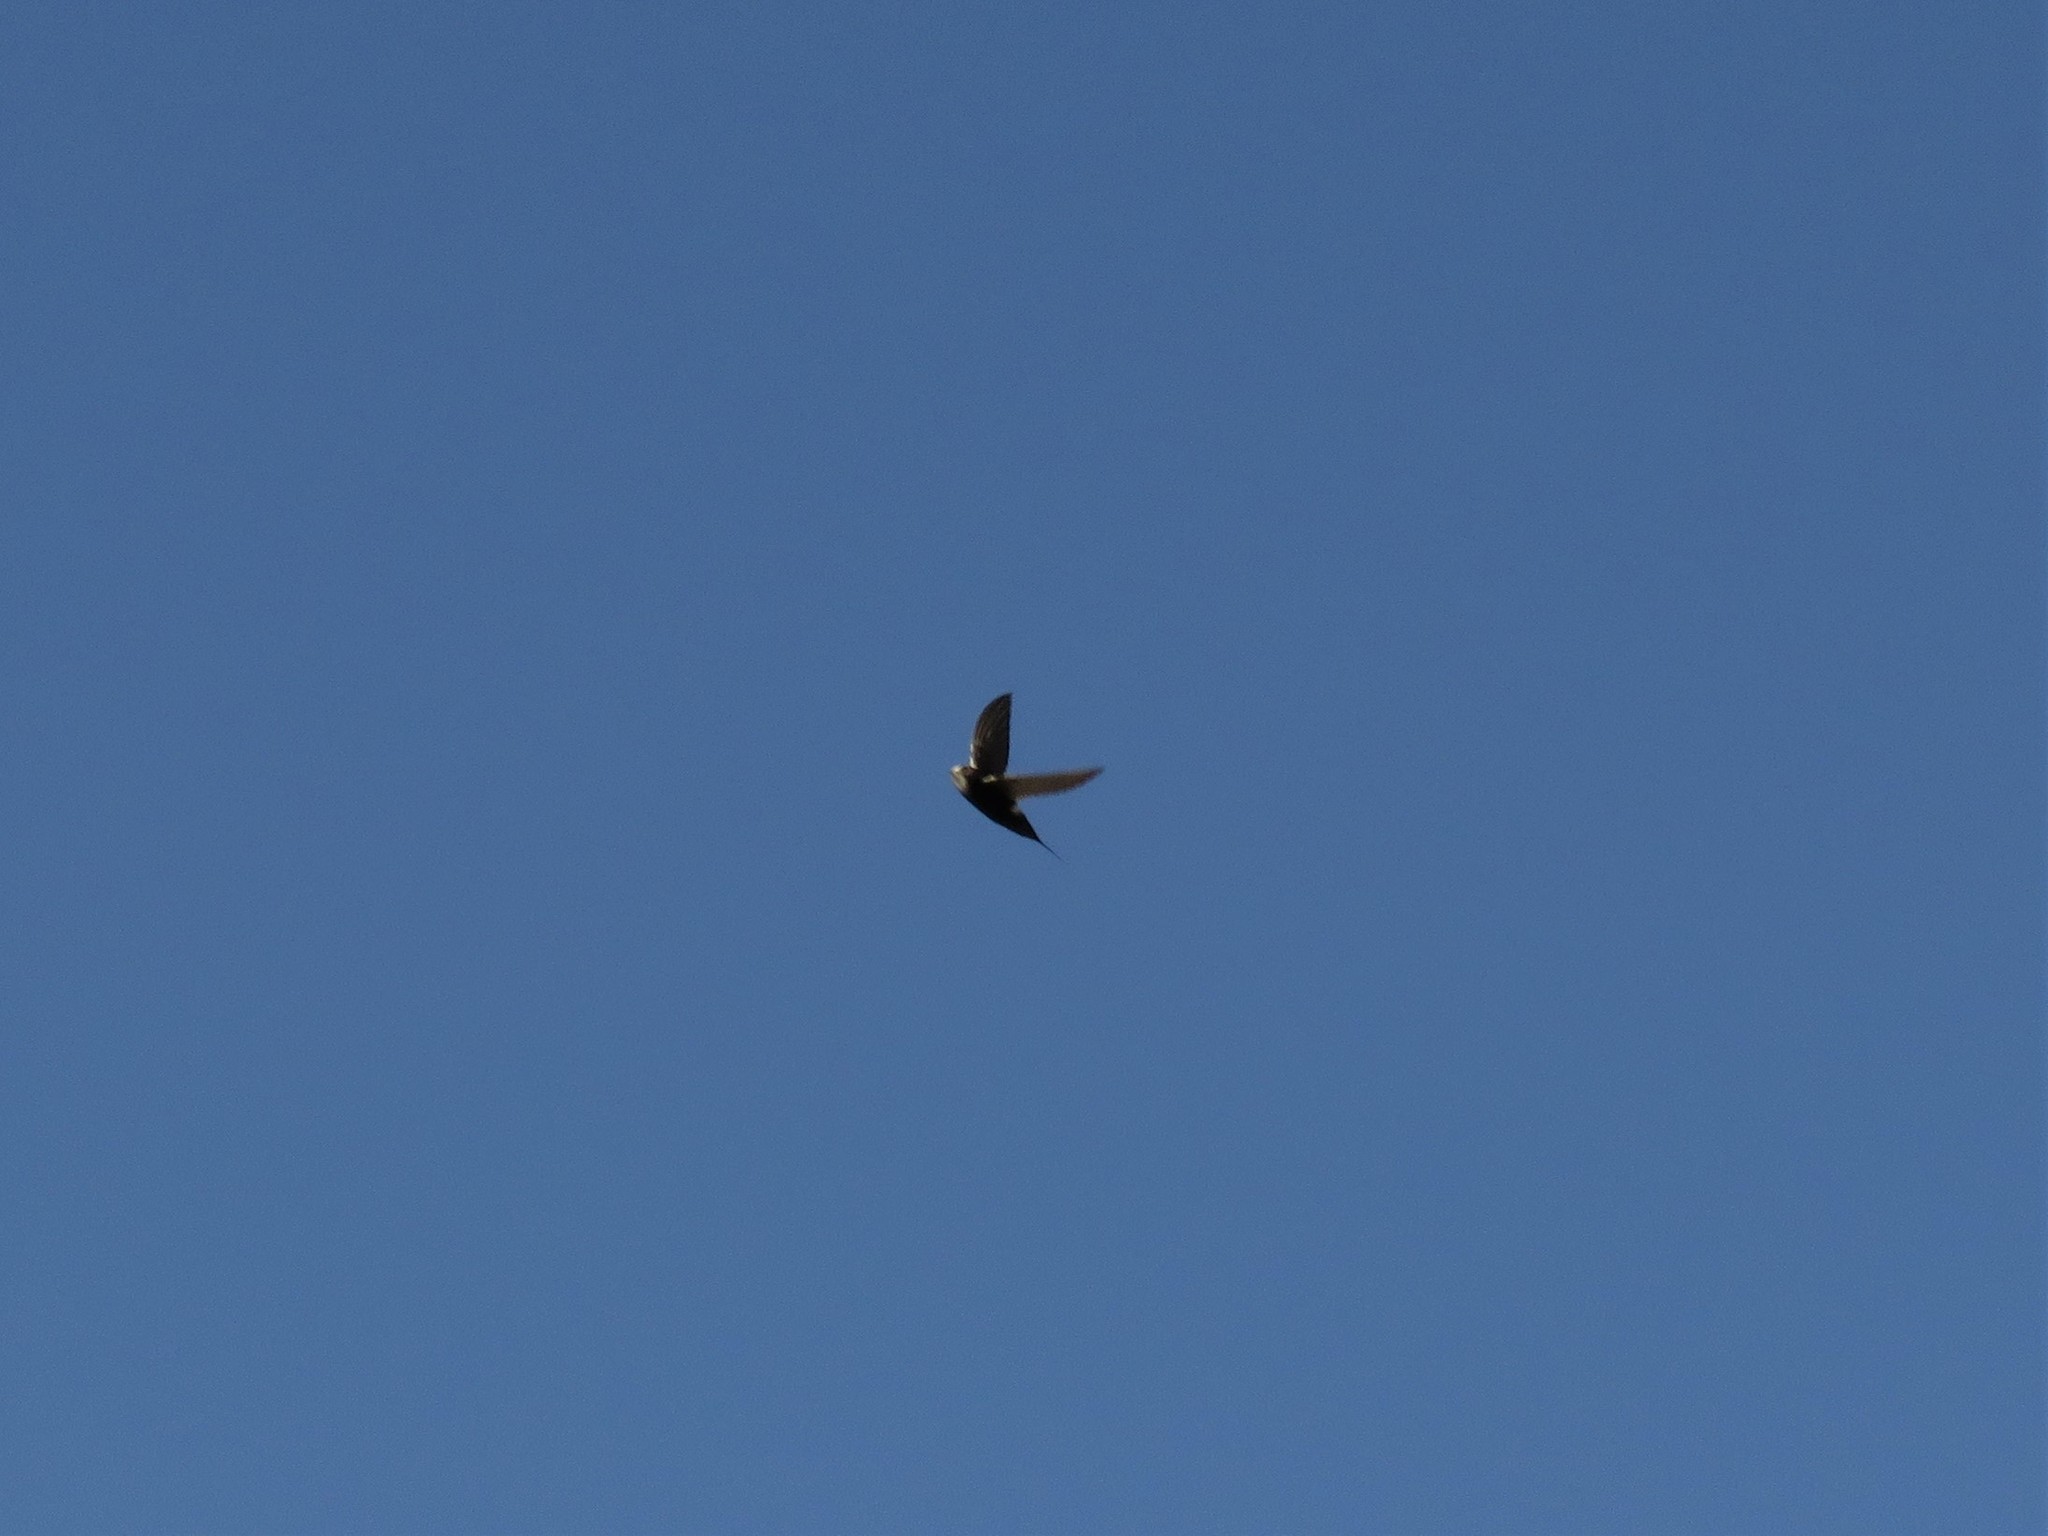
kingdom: Animalia
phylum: Chordata
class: Aves
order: Apodiformes
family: Apodidae
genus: Apus
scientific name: Apus caffer
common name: White-rumped swift
